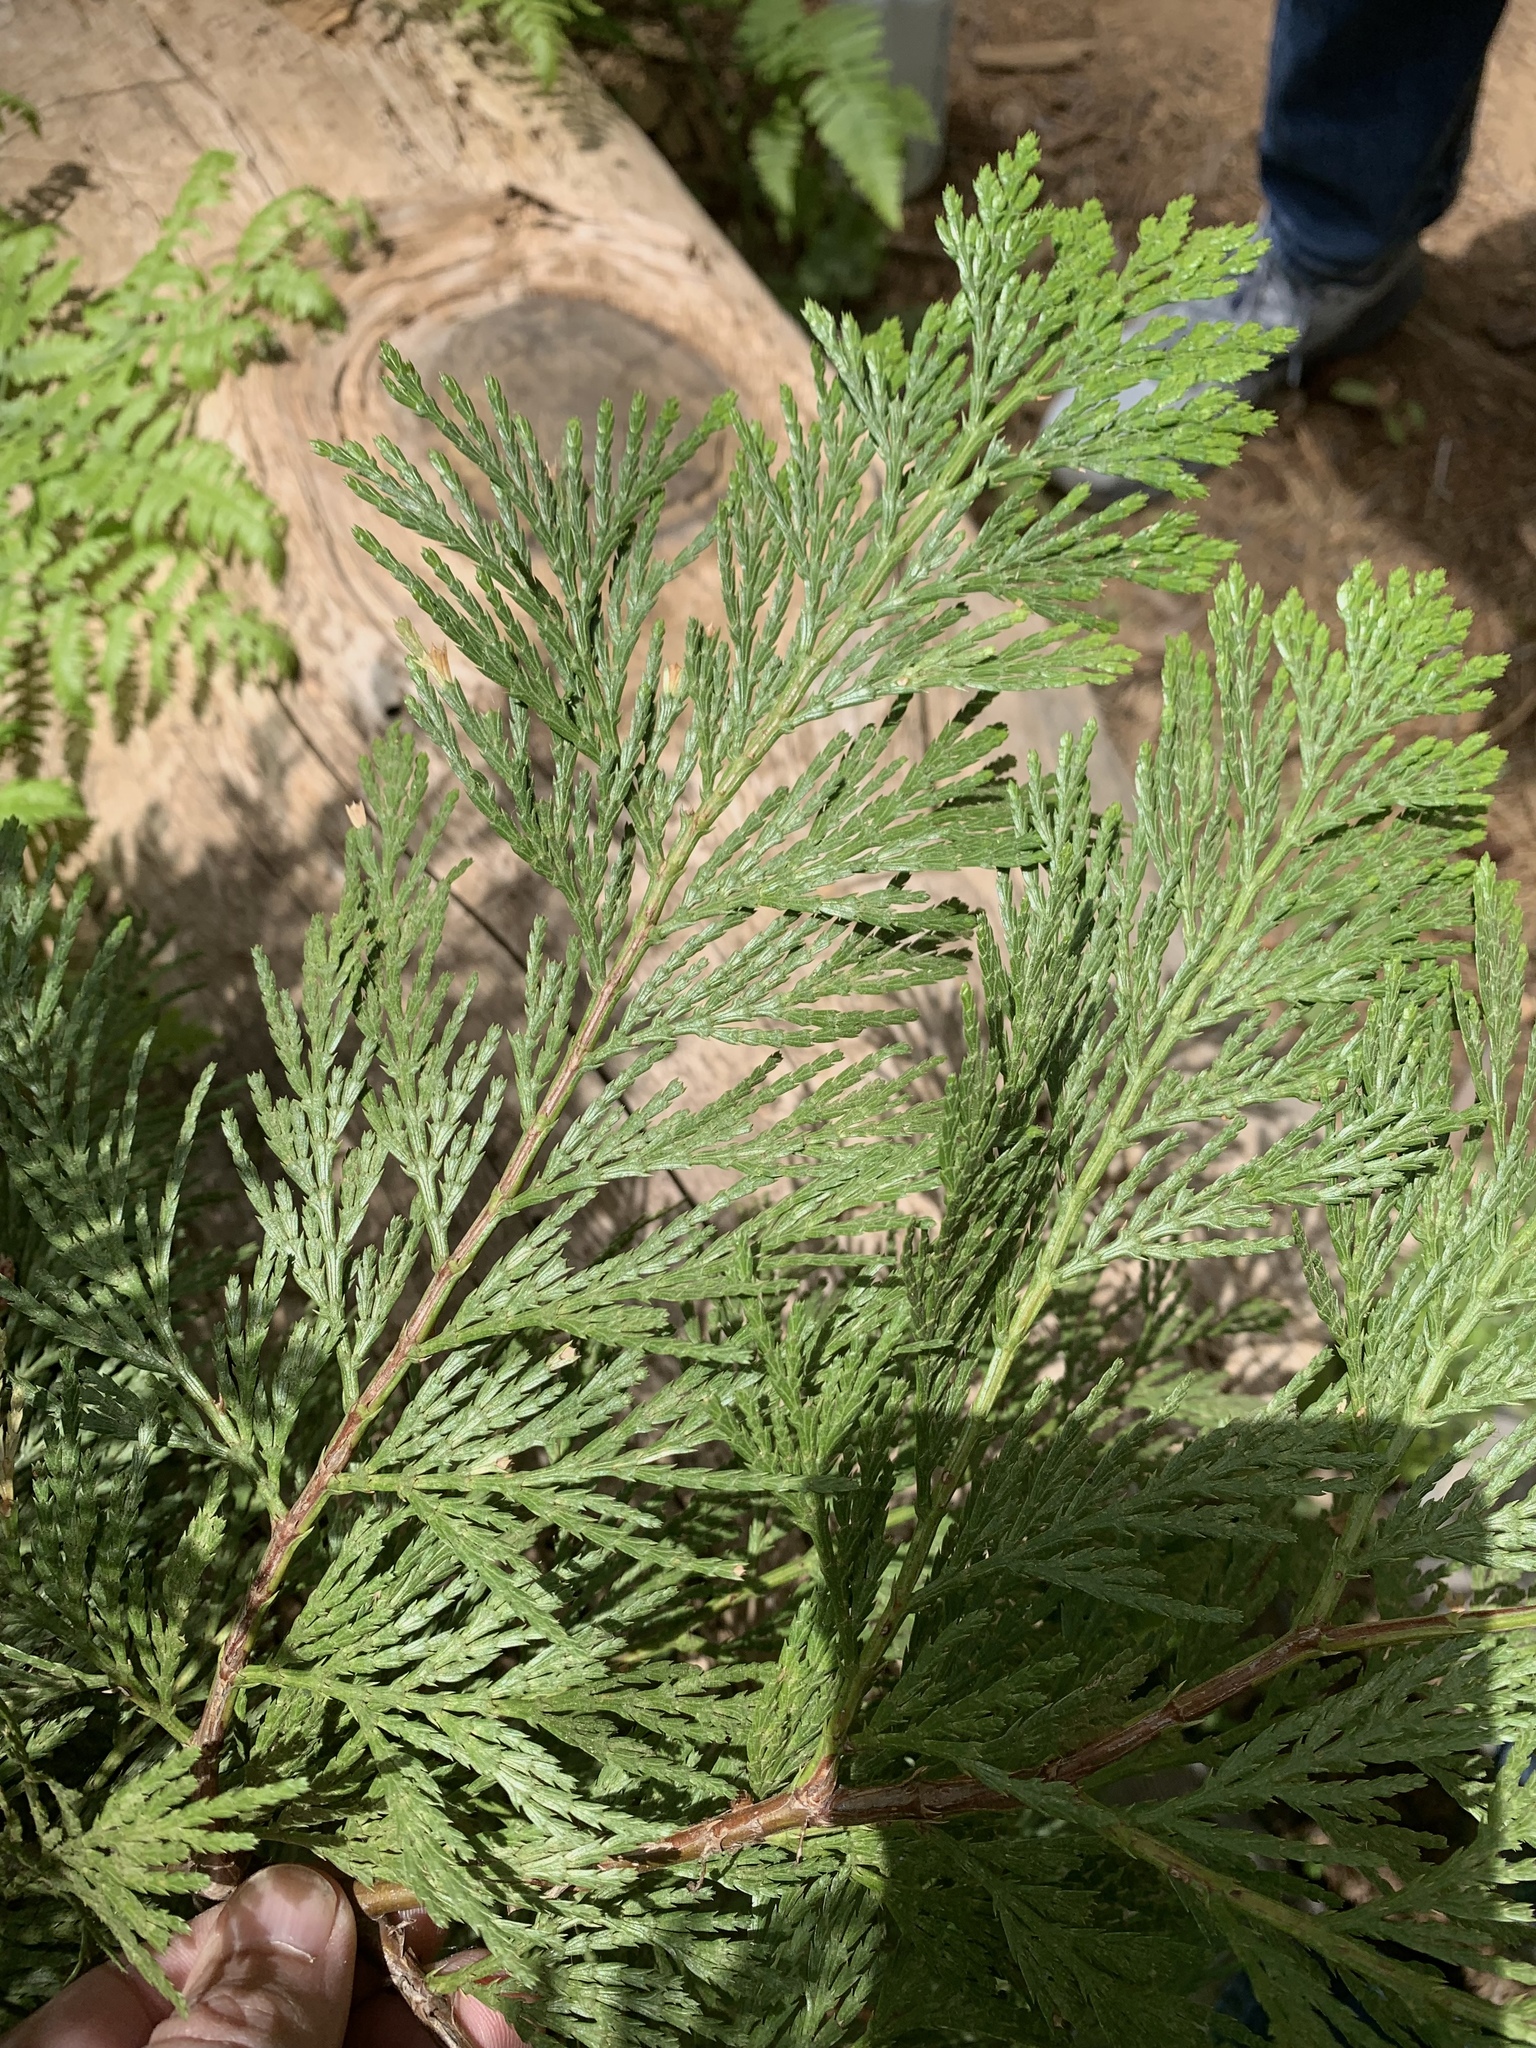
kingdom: Plantae
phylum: Tracheophyta
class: Pinopsida
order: Pinales
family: Cupressaceae
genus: Calocedrus
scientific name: Calocedrus decurrens
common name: Californian incense-cedar
